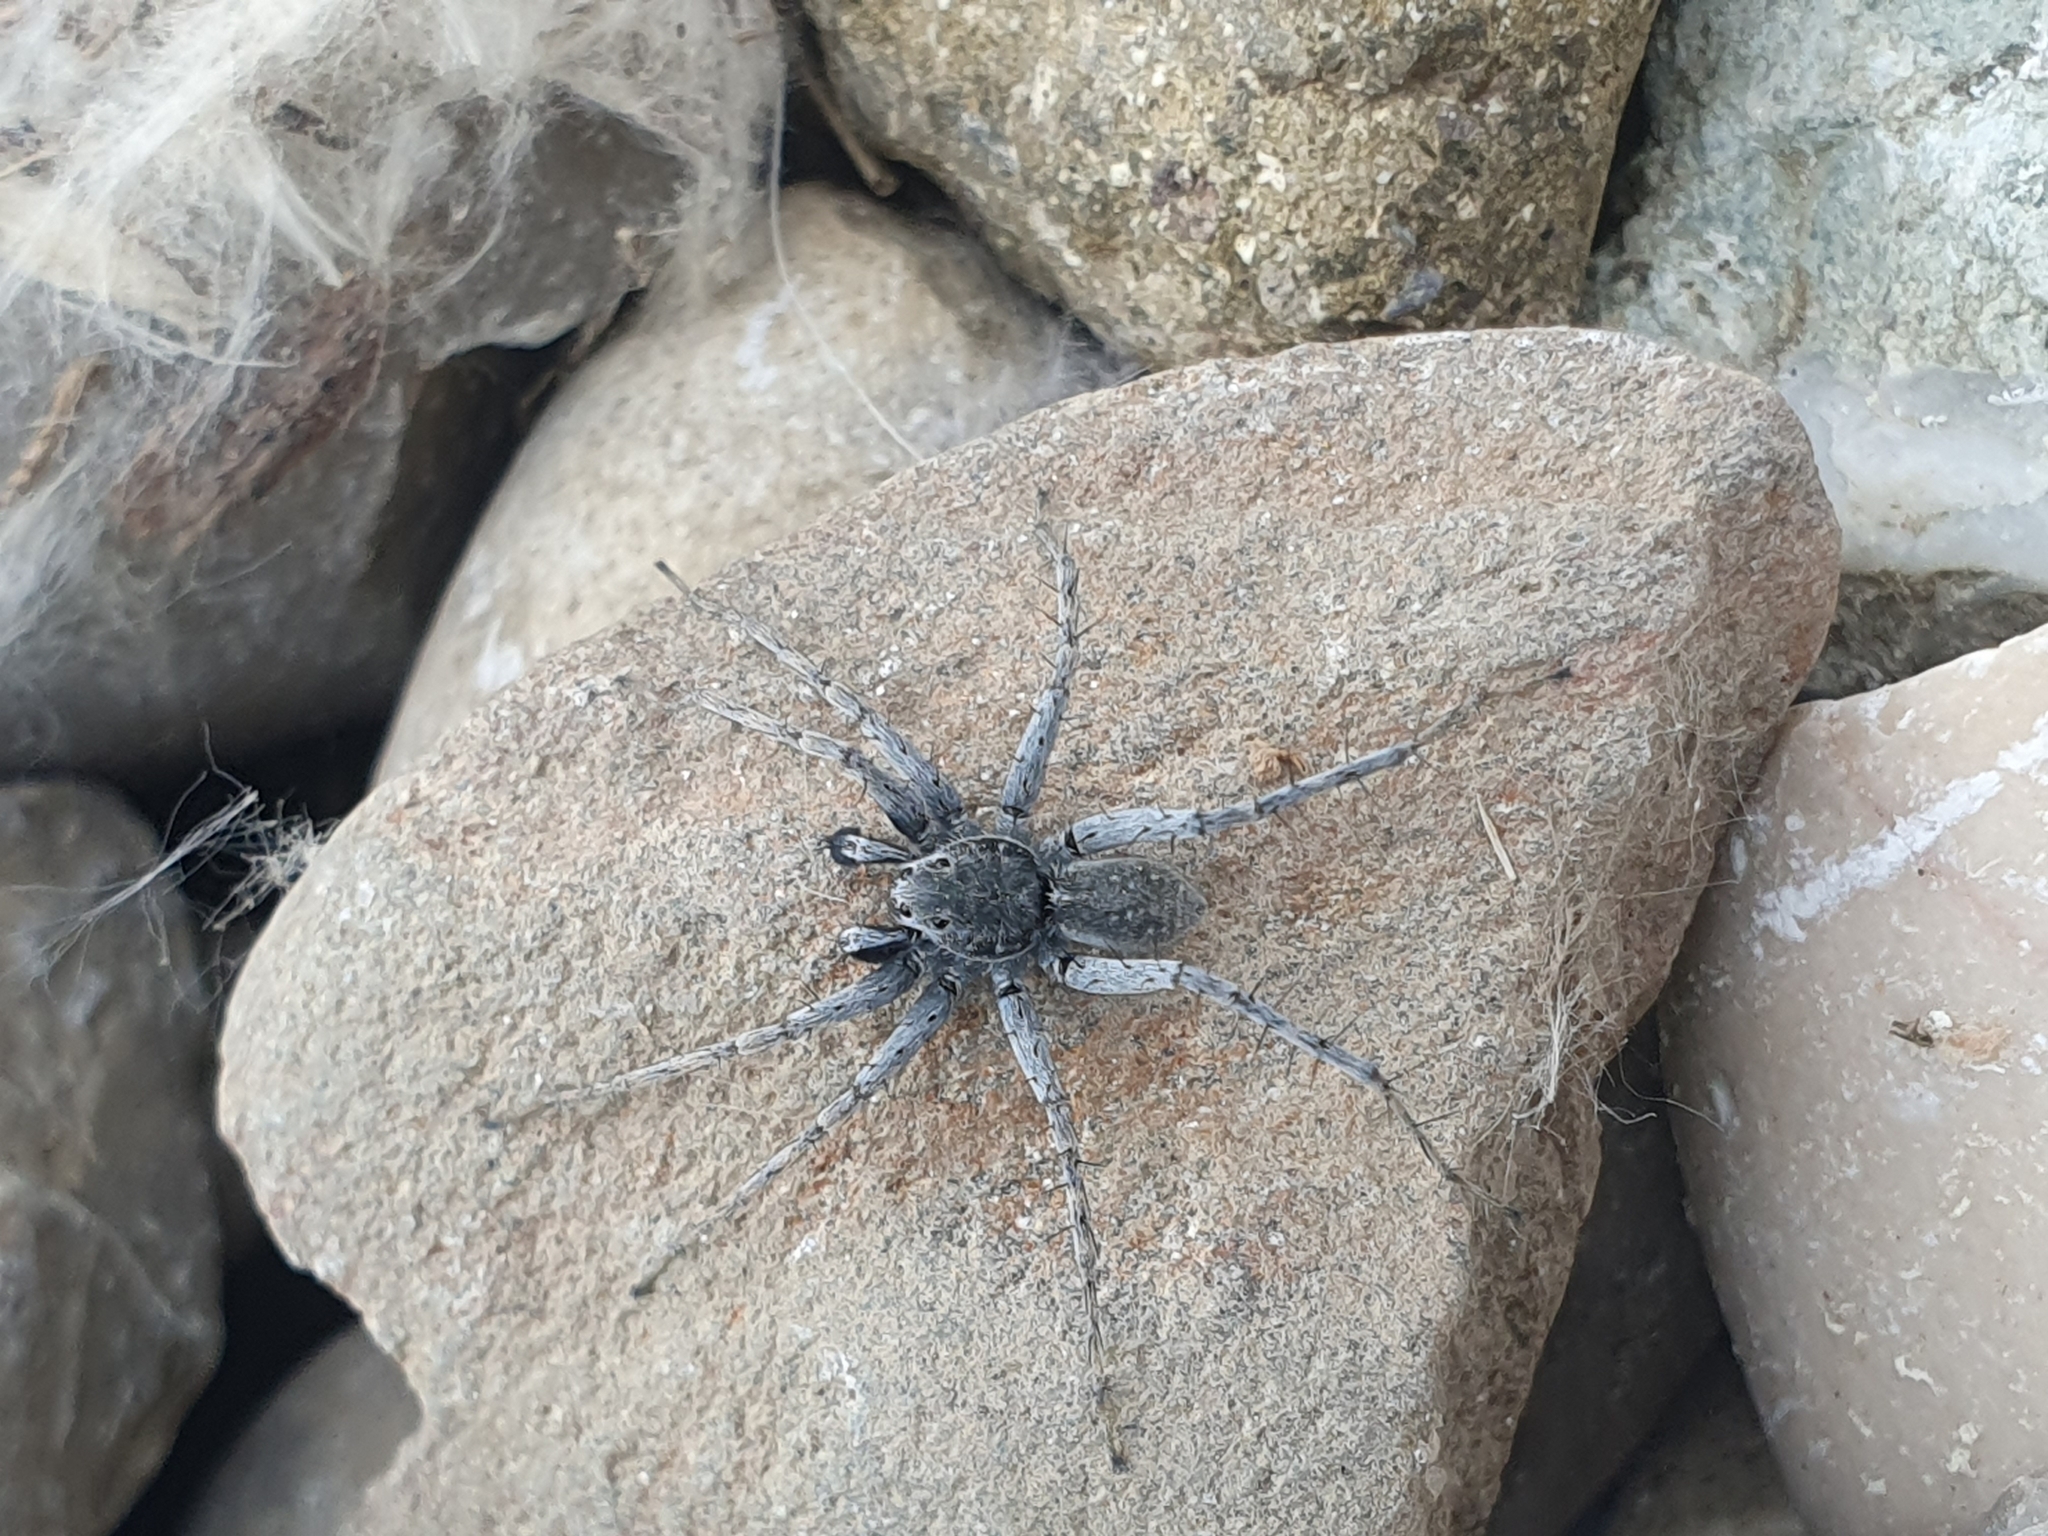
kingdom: Animalia
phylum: Arthropoda
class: Arachnida
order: Araneae
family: Lycosidae
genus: Pardosa
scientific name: Pardosa wagleri
